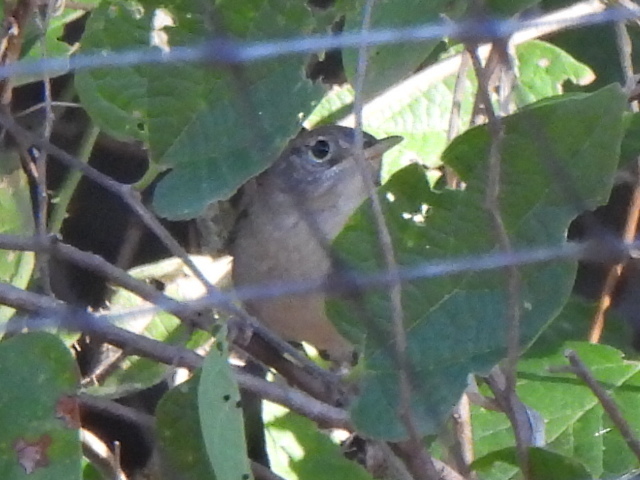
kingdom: Animalia
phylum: Chordata
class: Aves
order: Passeriformes
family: Troglodytidae
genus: Troglodytes
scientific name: Troglodytes aedon
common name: House wren
